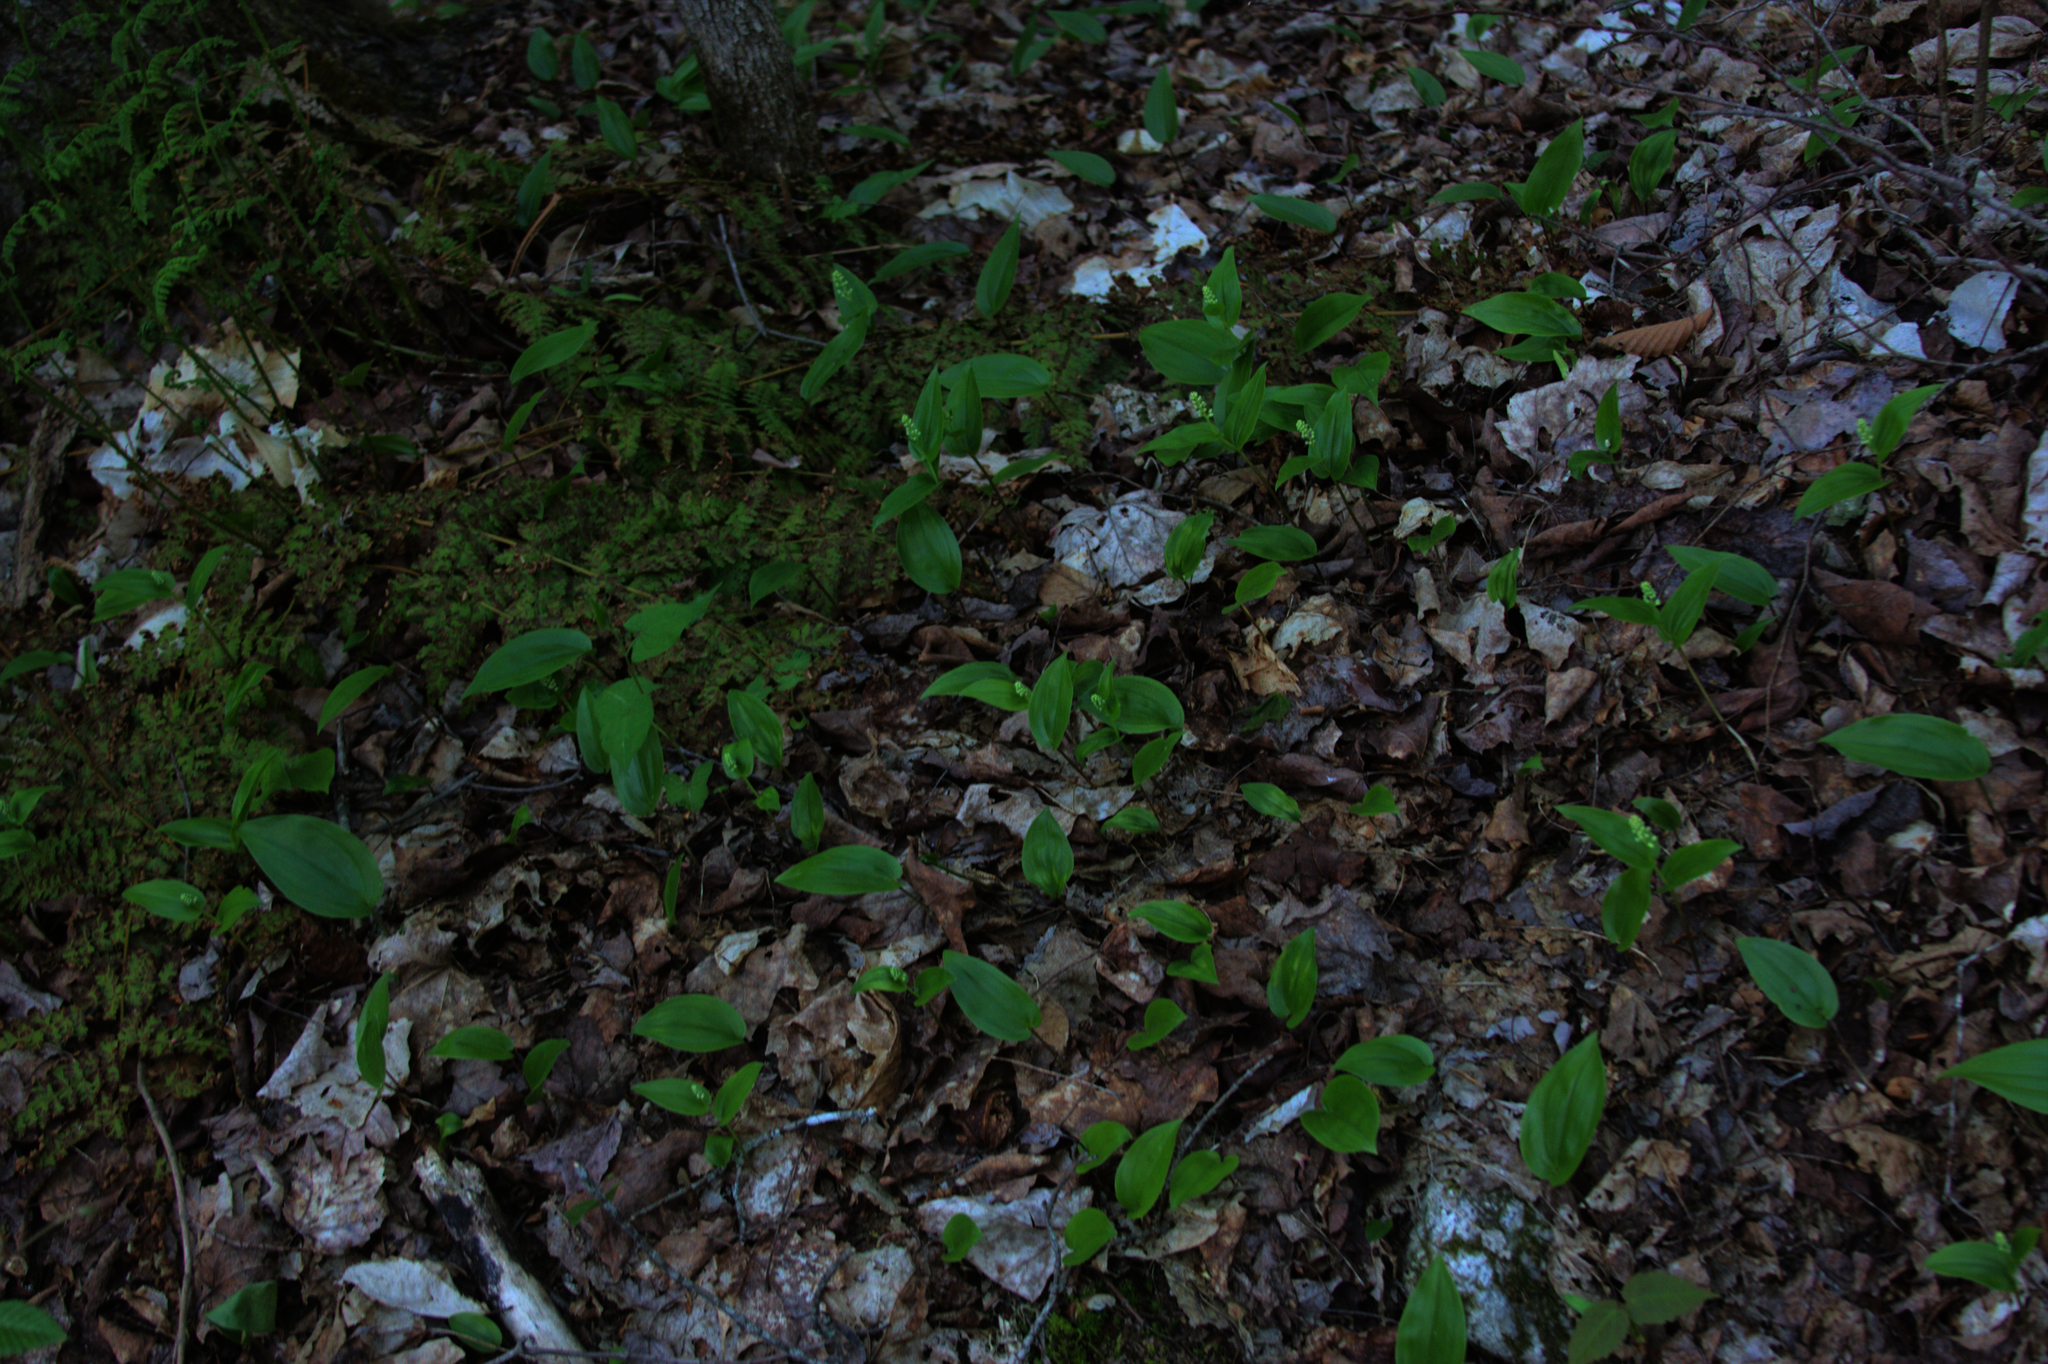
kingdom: Plantae
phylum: Tracheophyta
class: Liliopsida
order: Asparagales
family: Asparagaceae
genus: Maianthemum
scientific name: Maianthemum canadense
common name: False lily-of-the-valley
